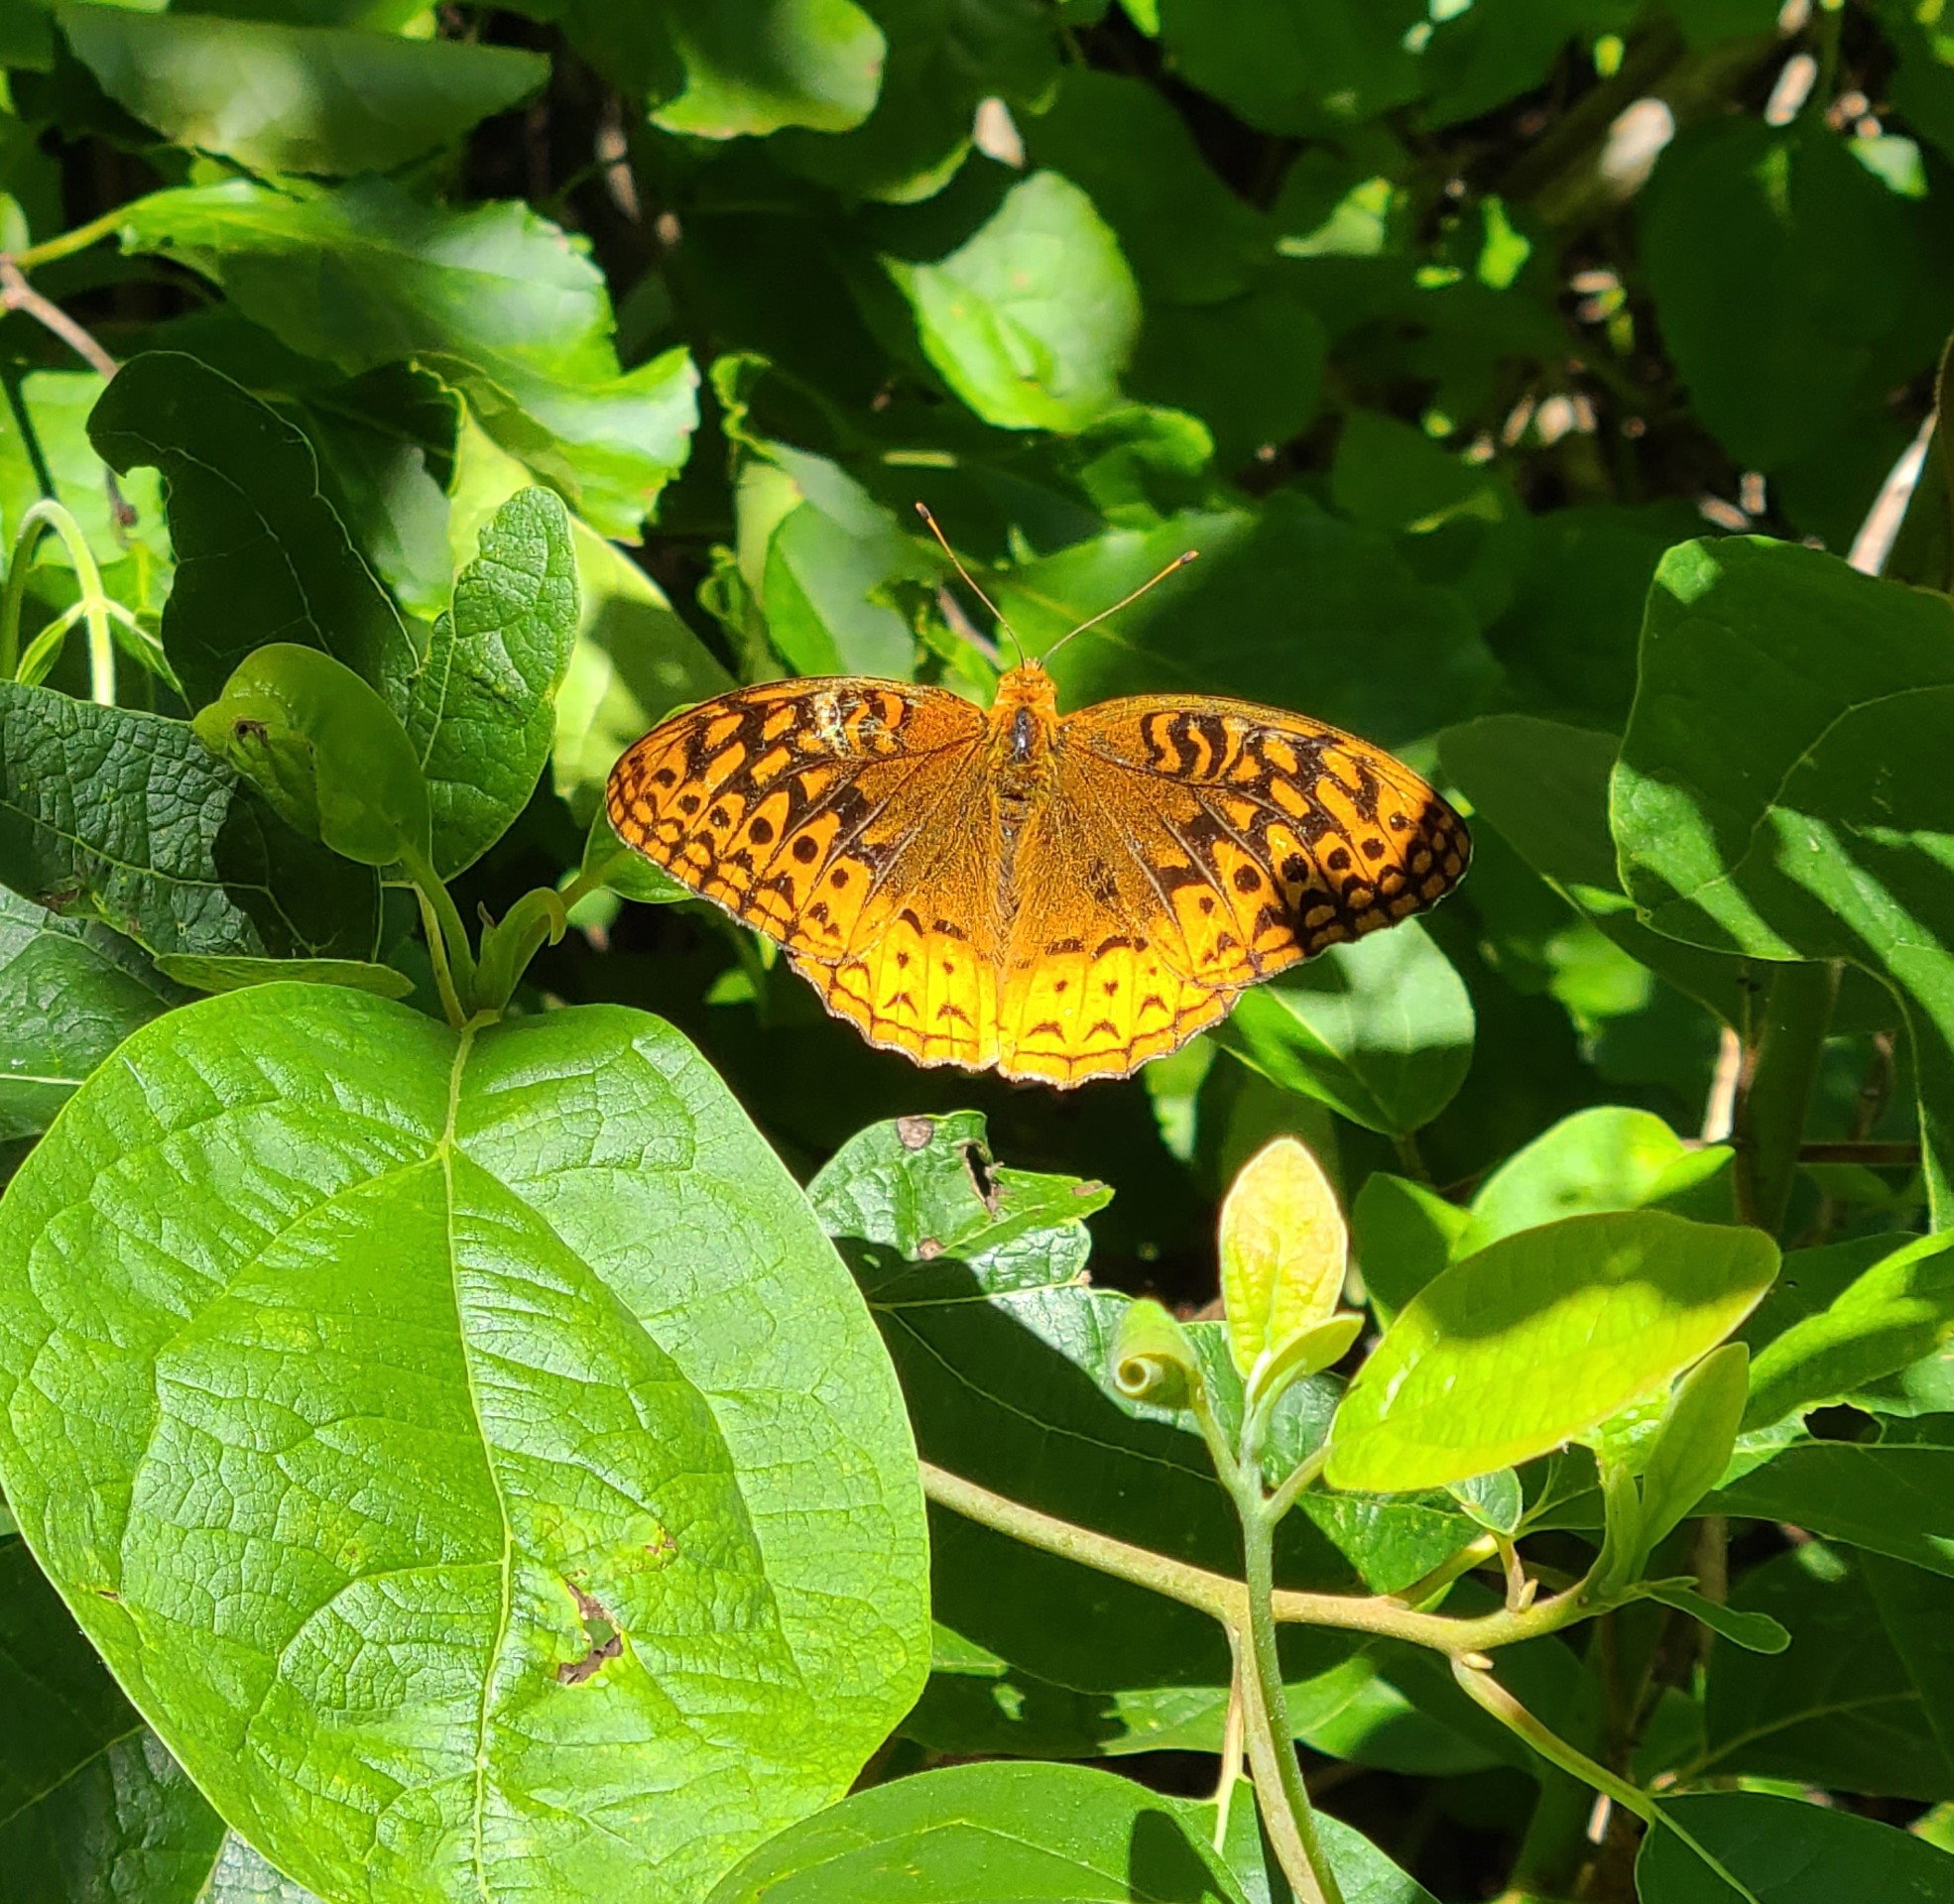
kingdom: Animalia
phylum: Arthropoda
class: Insecta
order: Lepidoptera
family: Nymphalidae
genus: Speyeria
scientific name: Speyeria cybele
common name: Great spangled fritillary
